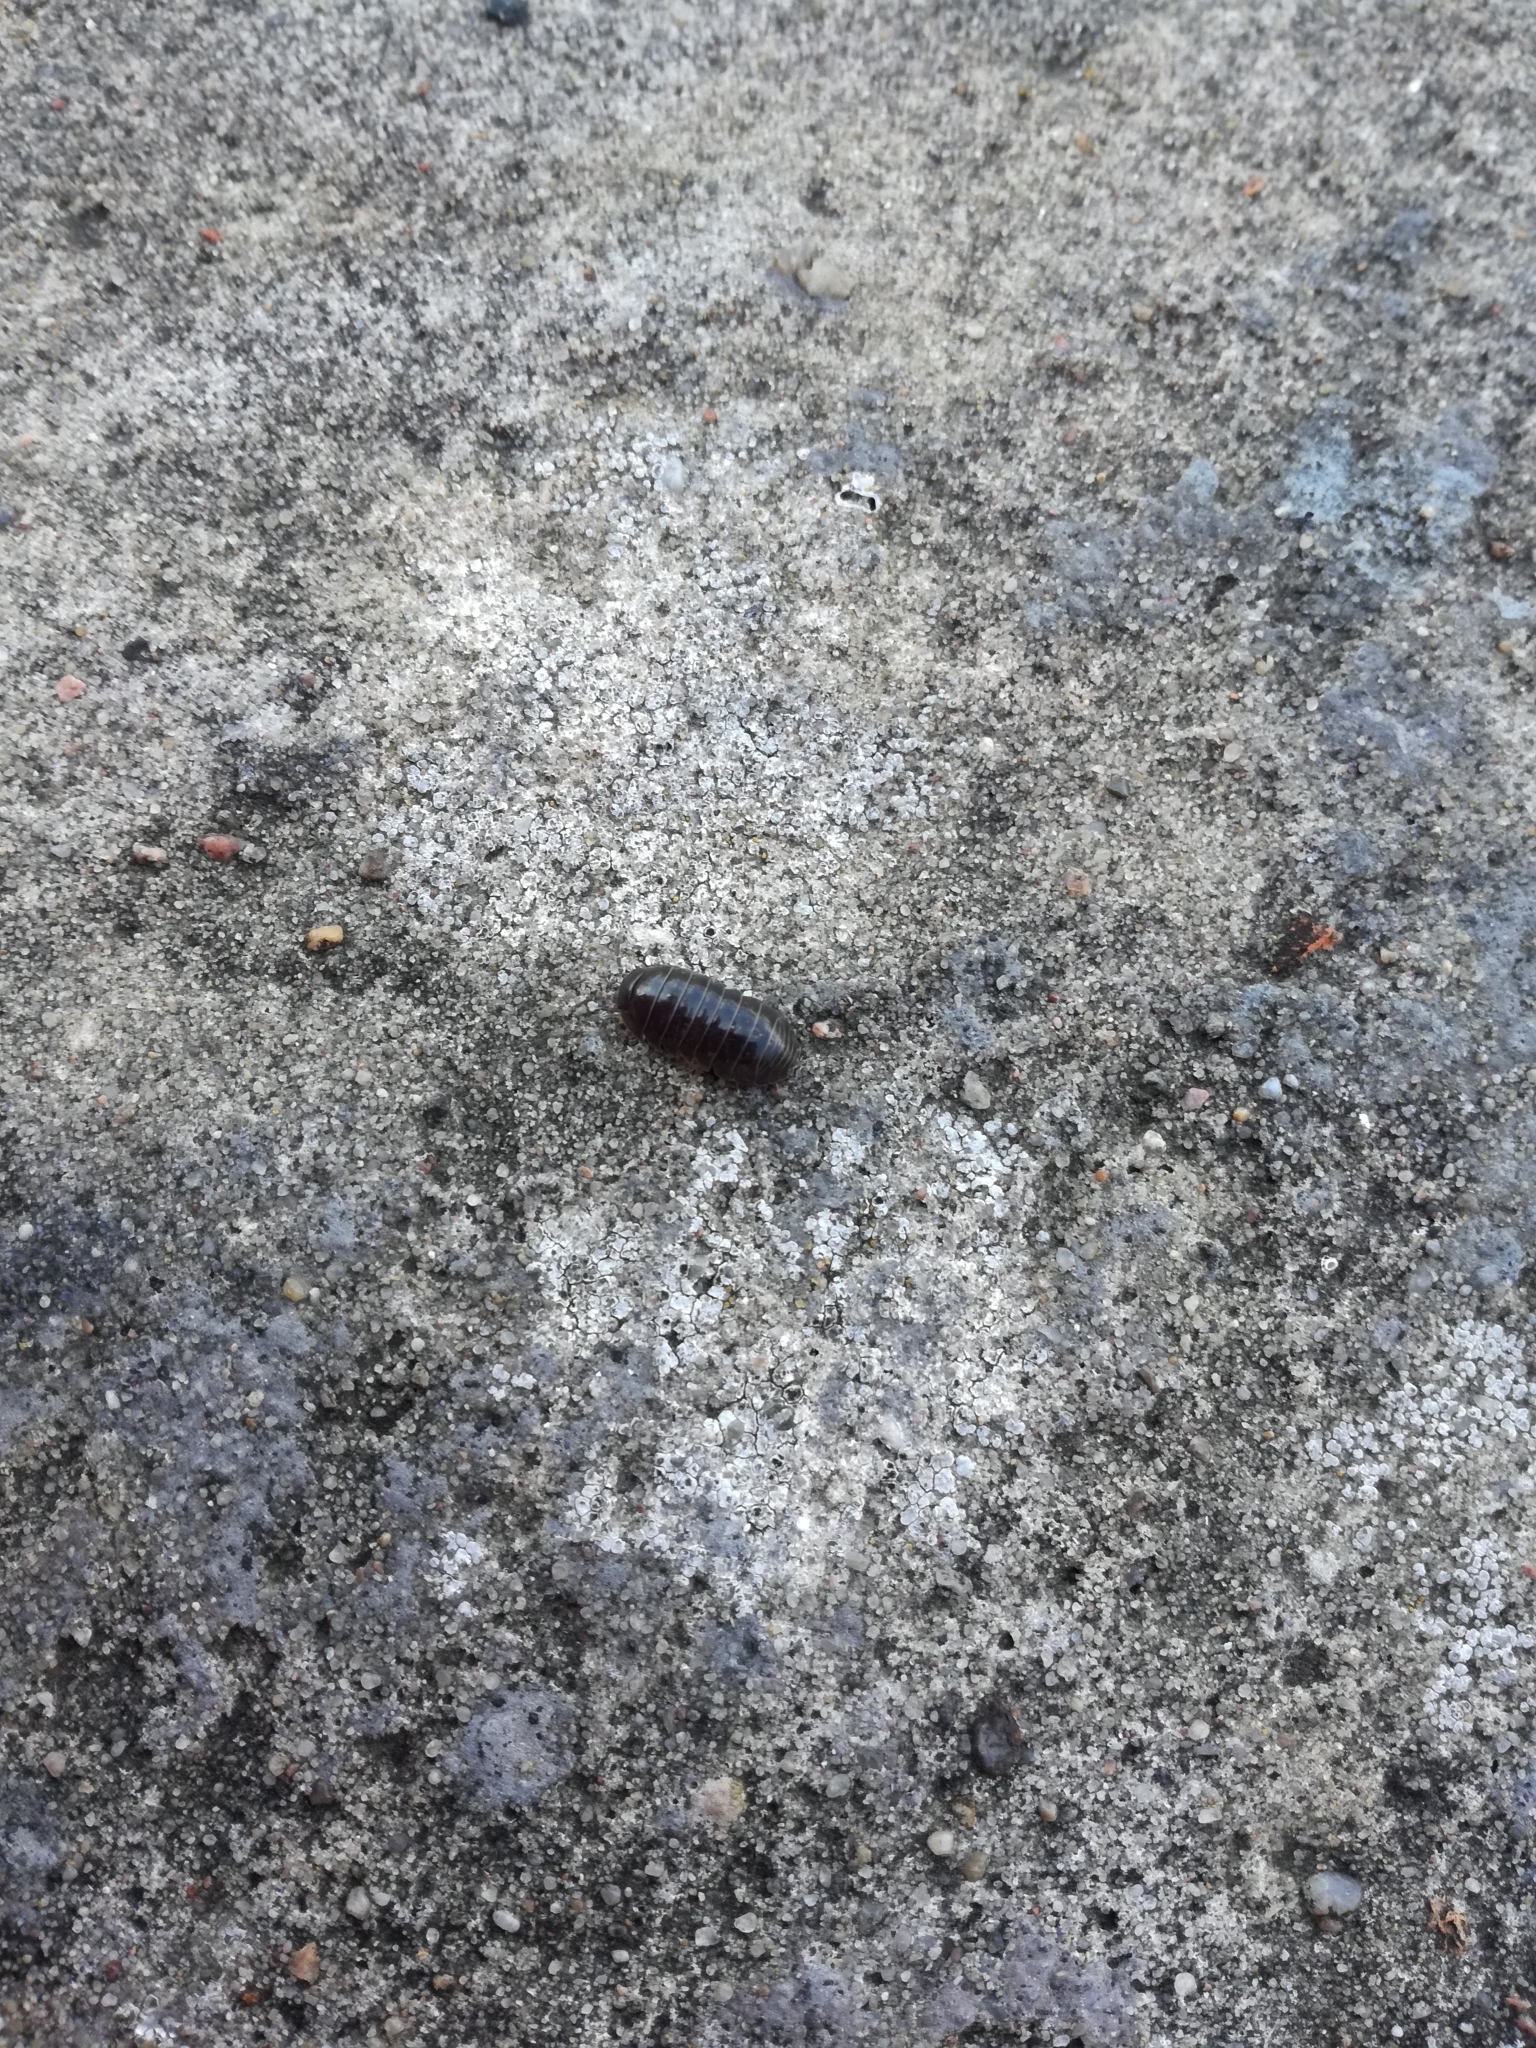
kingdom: Animalia
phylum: Arthropoda
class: Malacostraca
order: Isopoda
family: Armadillidiidae
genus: Armadillidium
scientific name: Armadillidium vulgare
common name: Common pill woodlouse
